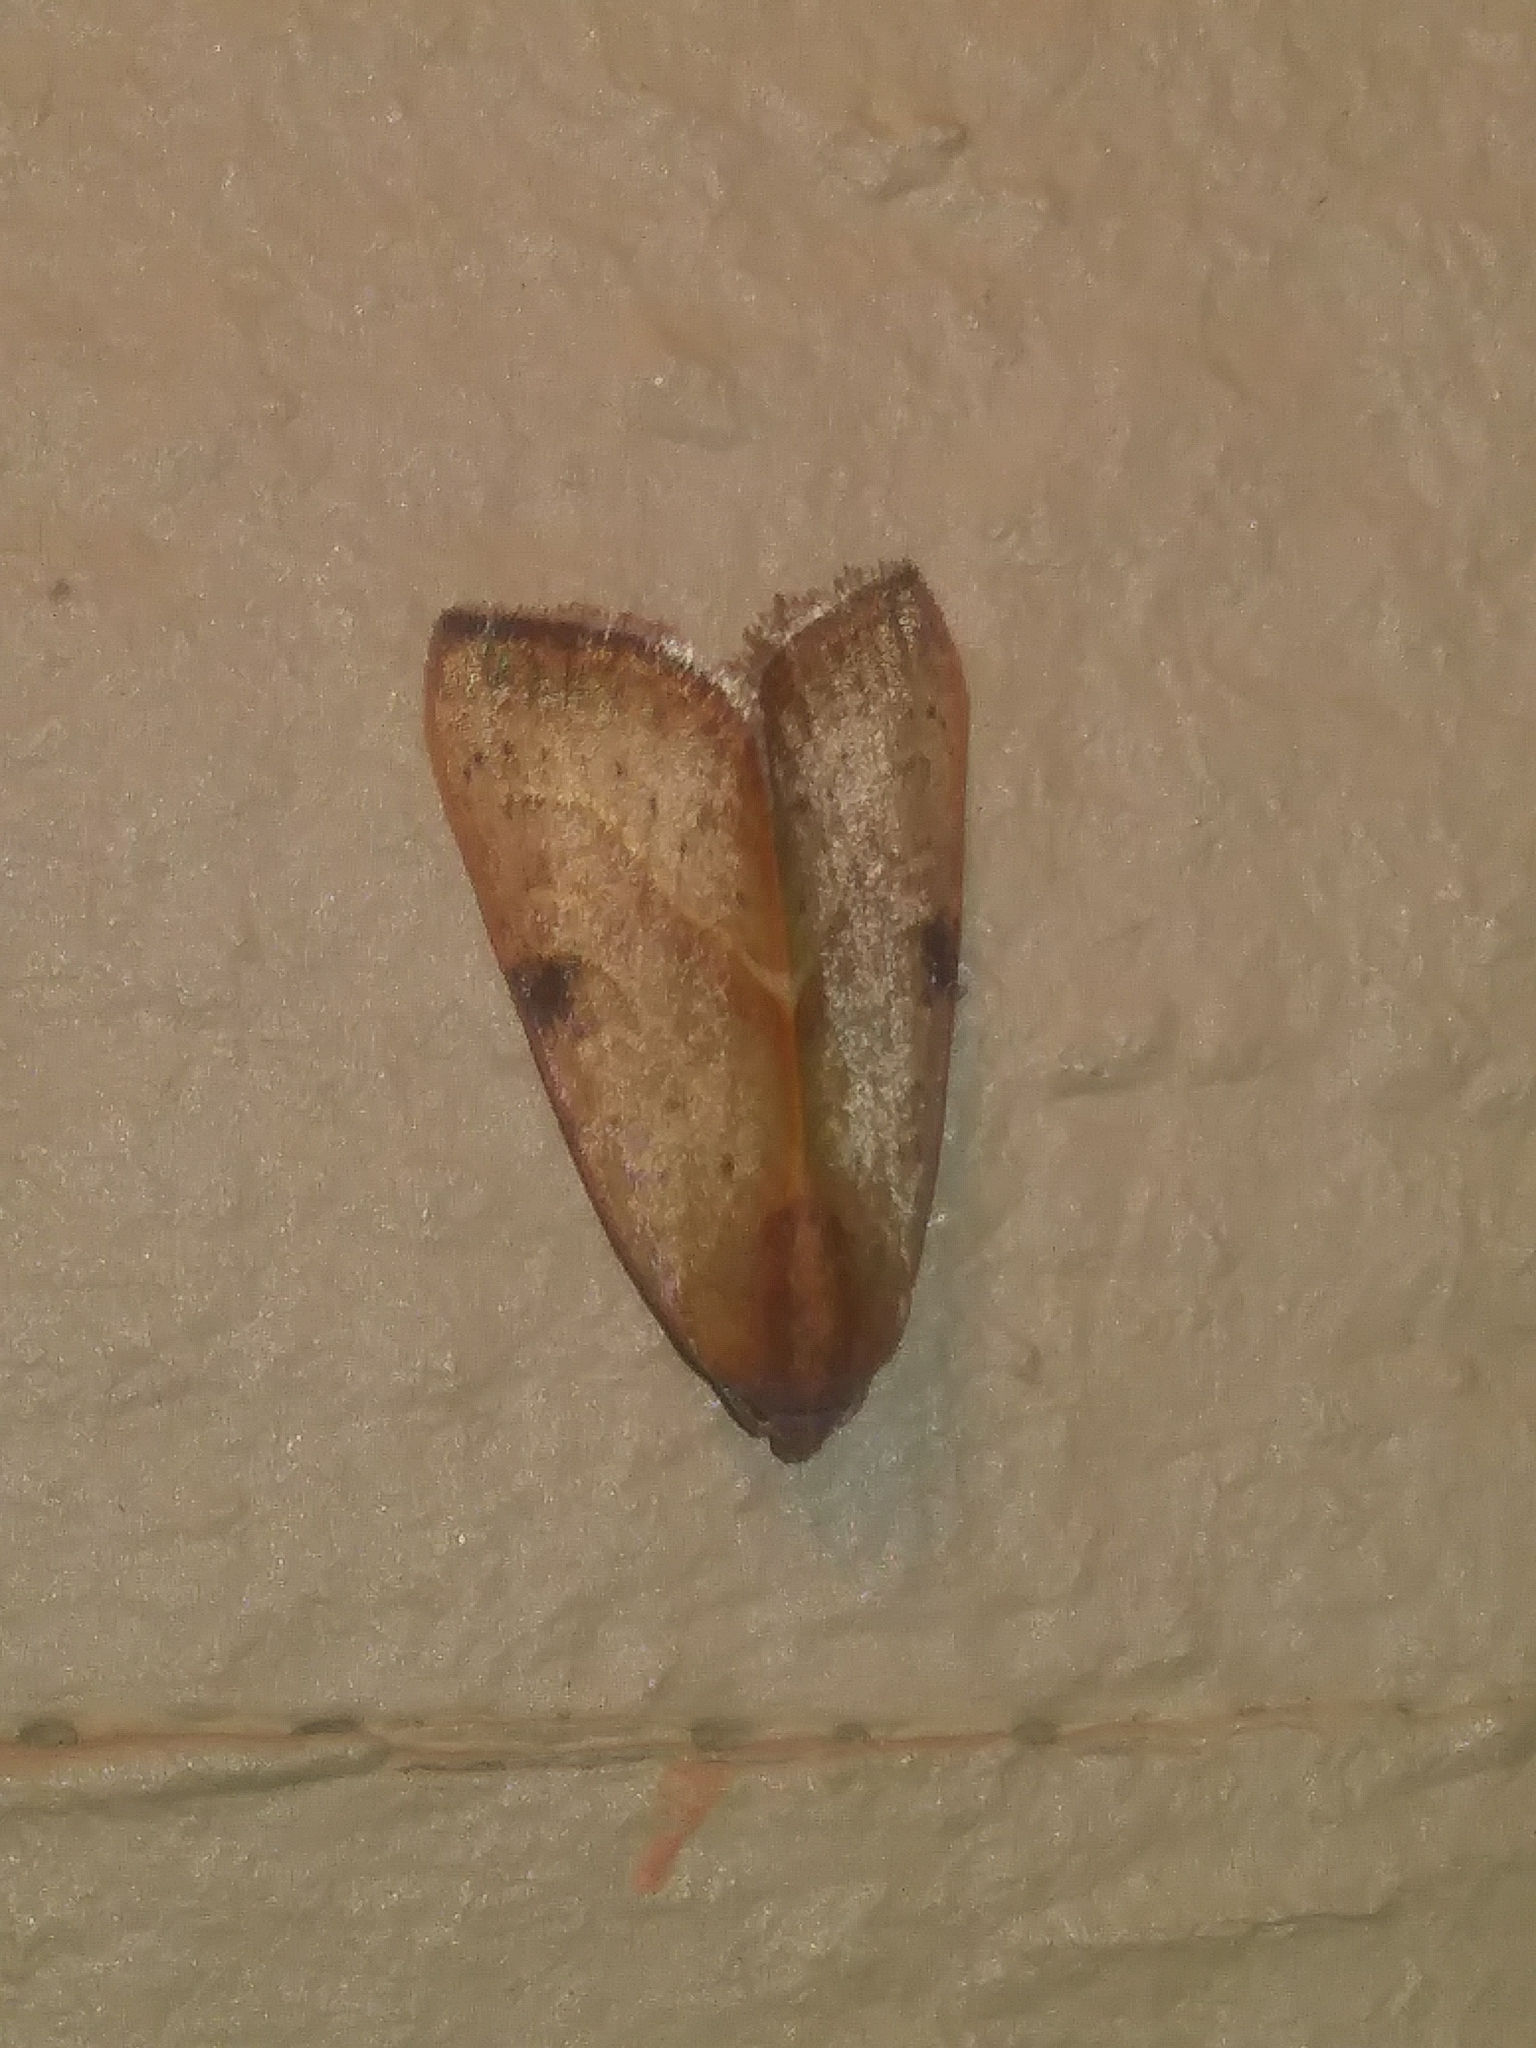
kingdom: Animalia
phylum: Arthropoda
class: Insecta
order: Lepidoptera
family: Noctuidae
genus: Galgula
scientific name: Galgula partita
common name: Wedgeling
